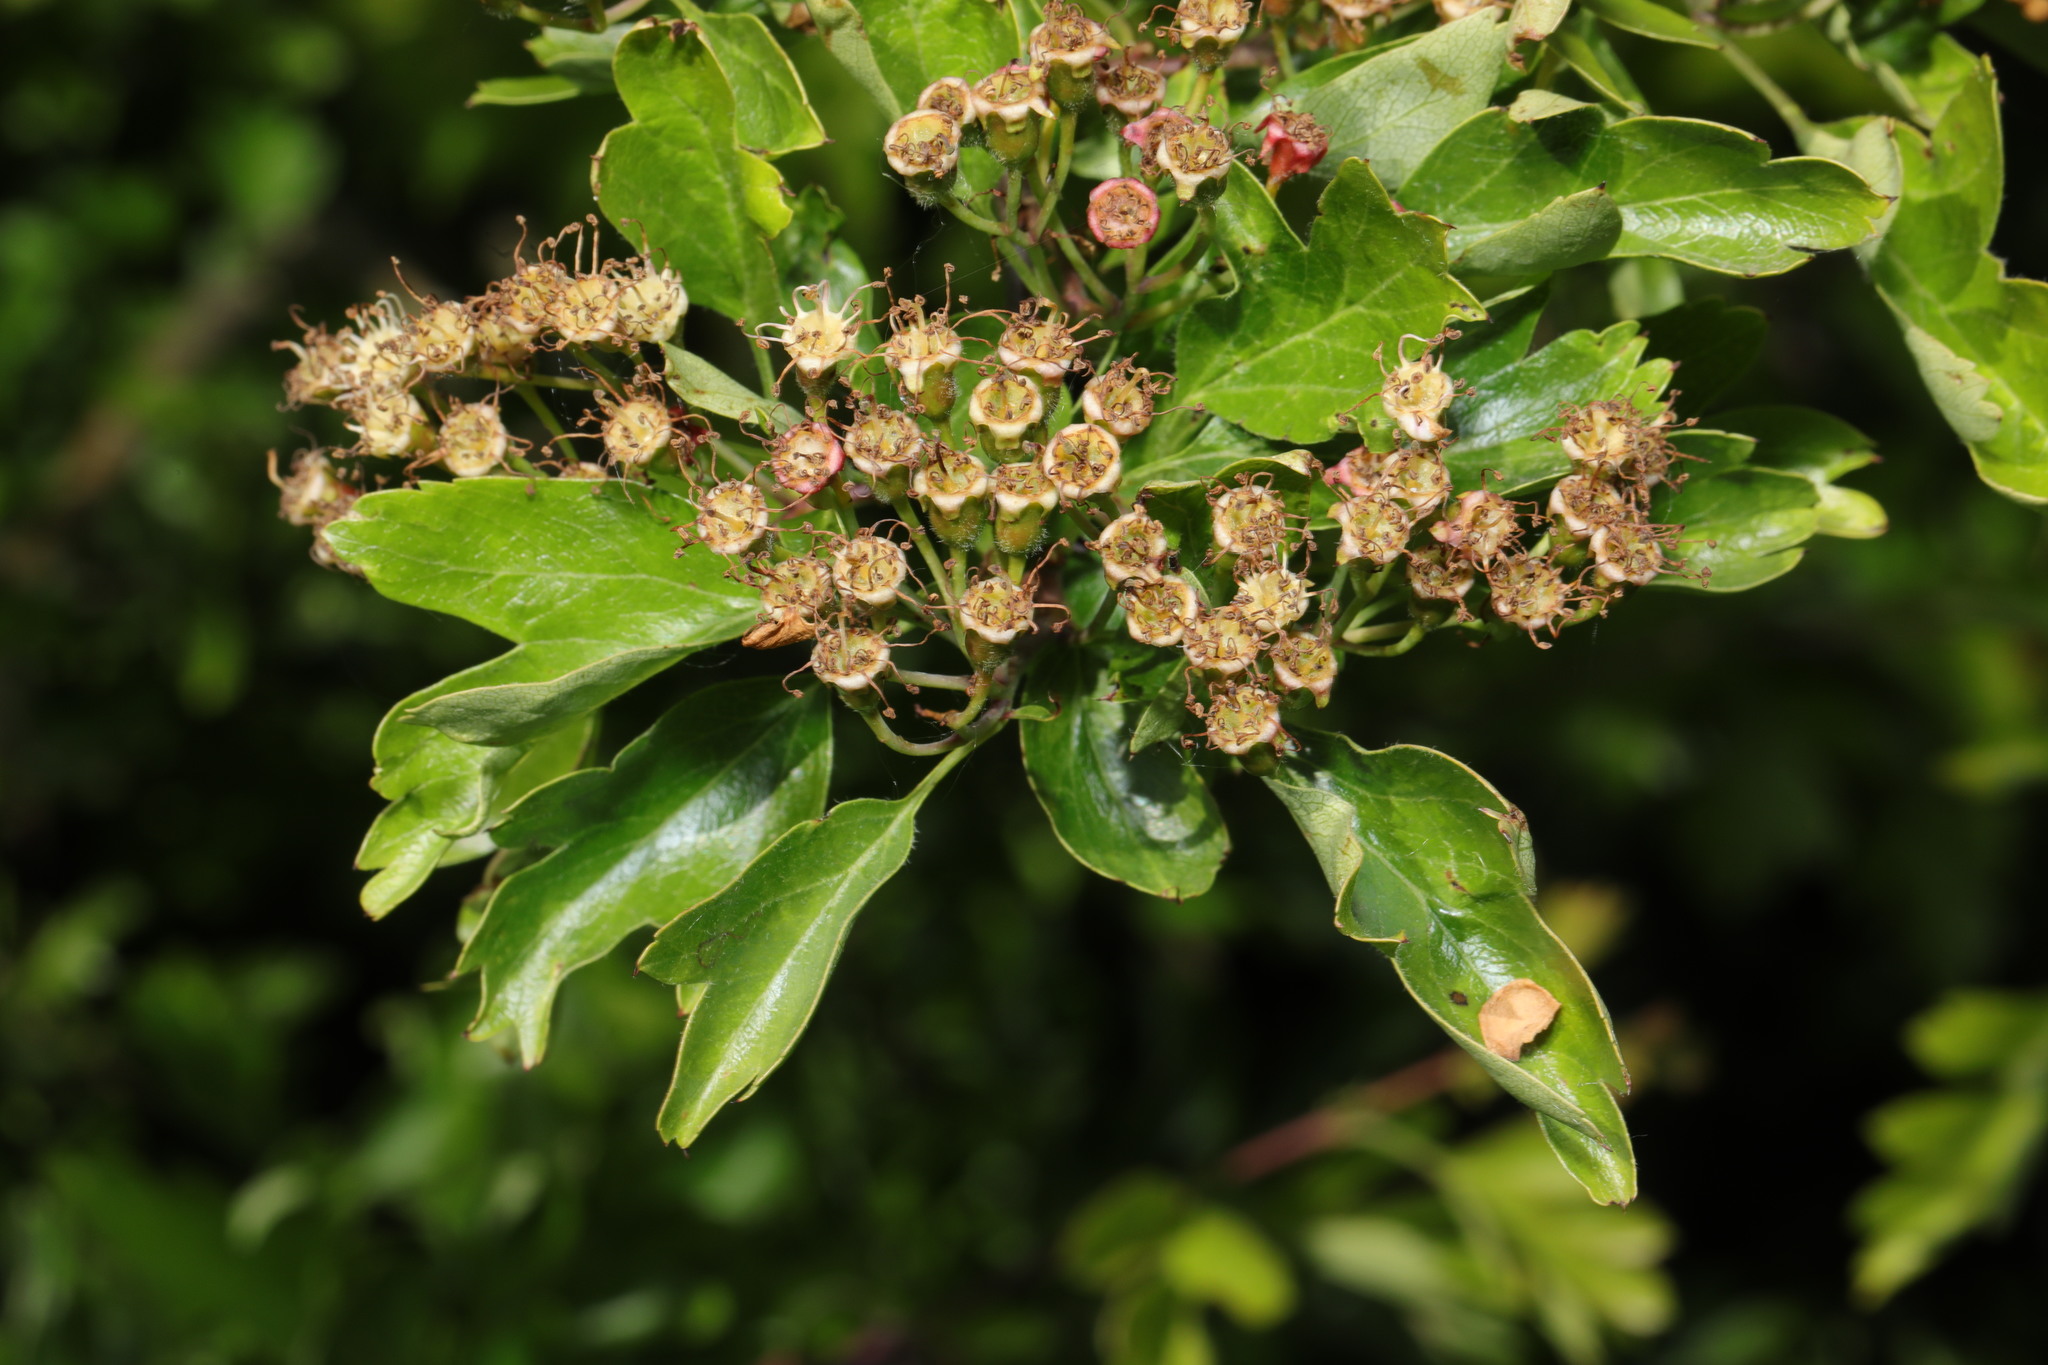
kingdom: Plantae
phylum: Tracheophyta
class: Magnoliopsida
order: Rosales
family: Rosaceae
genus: Crataegus
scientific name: Crataegus monogyna
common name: Hawthorn
